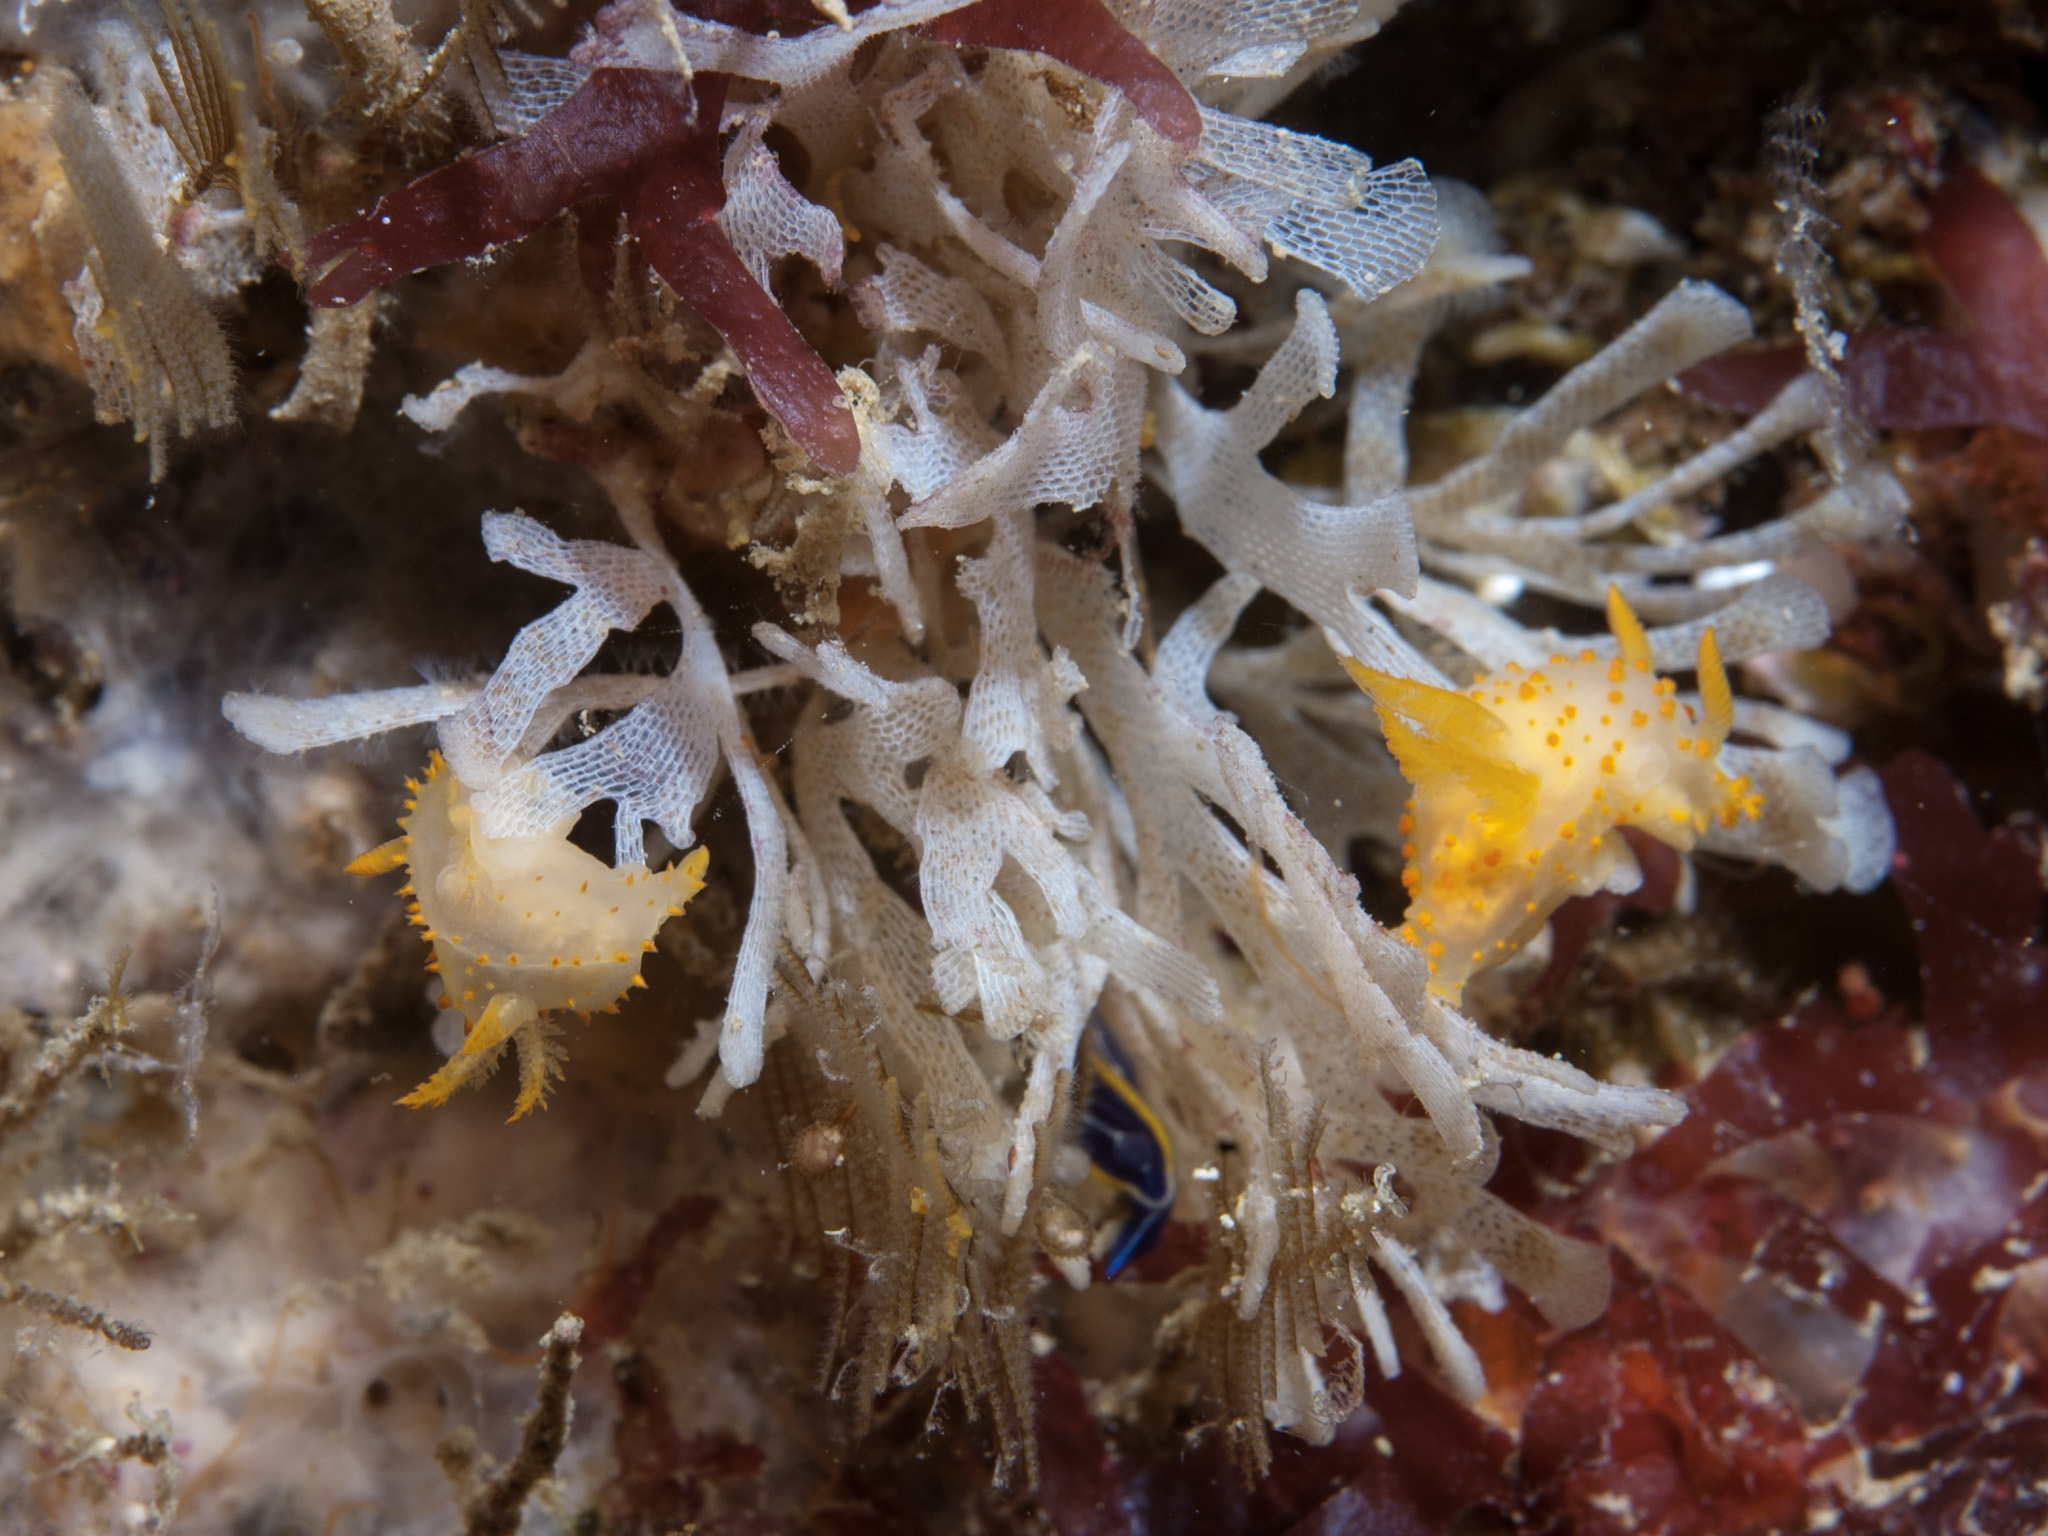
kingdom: Animalia
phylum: Mollusca
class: Gastropoda
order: Nudibranchia
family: Polyceridae
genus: Crimora
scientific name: Crimora papillata
